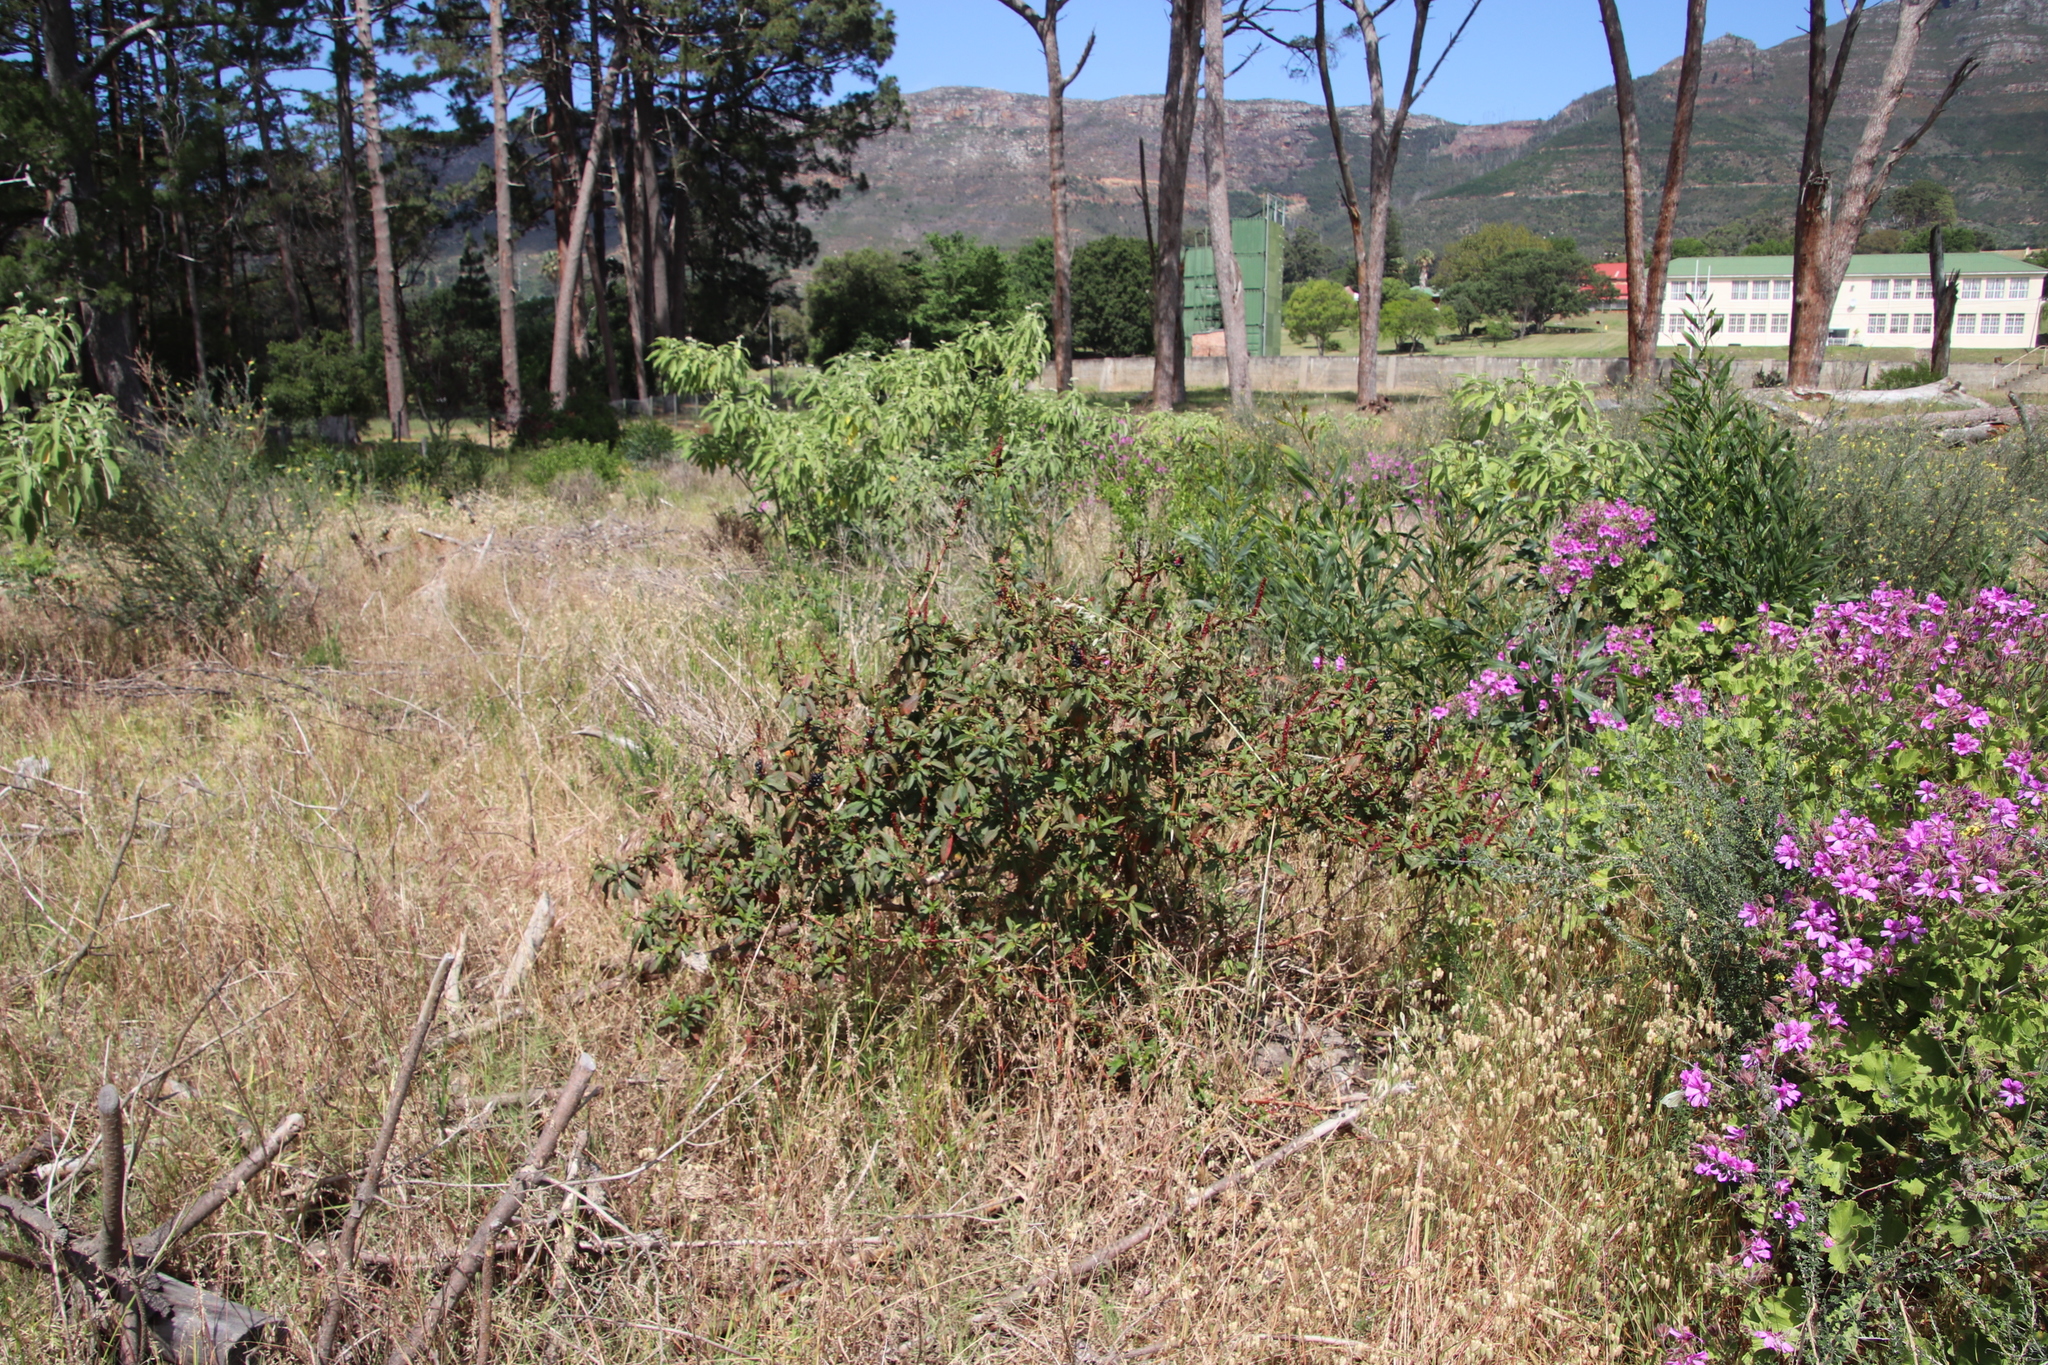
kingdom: Plantae
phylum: Tracheophyta
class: Magnoliopsida
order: Caryophyllales
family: Phytolaccaceae
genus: Phytolacca
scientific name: Phytolacca icosandra
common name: Button pokeweed
